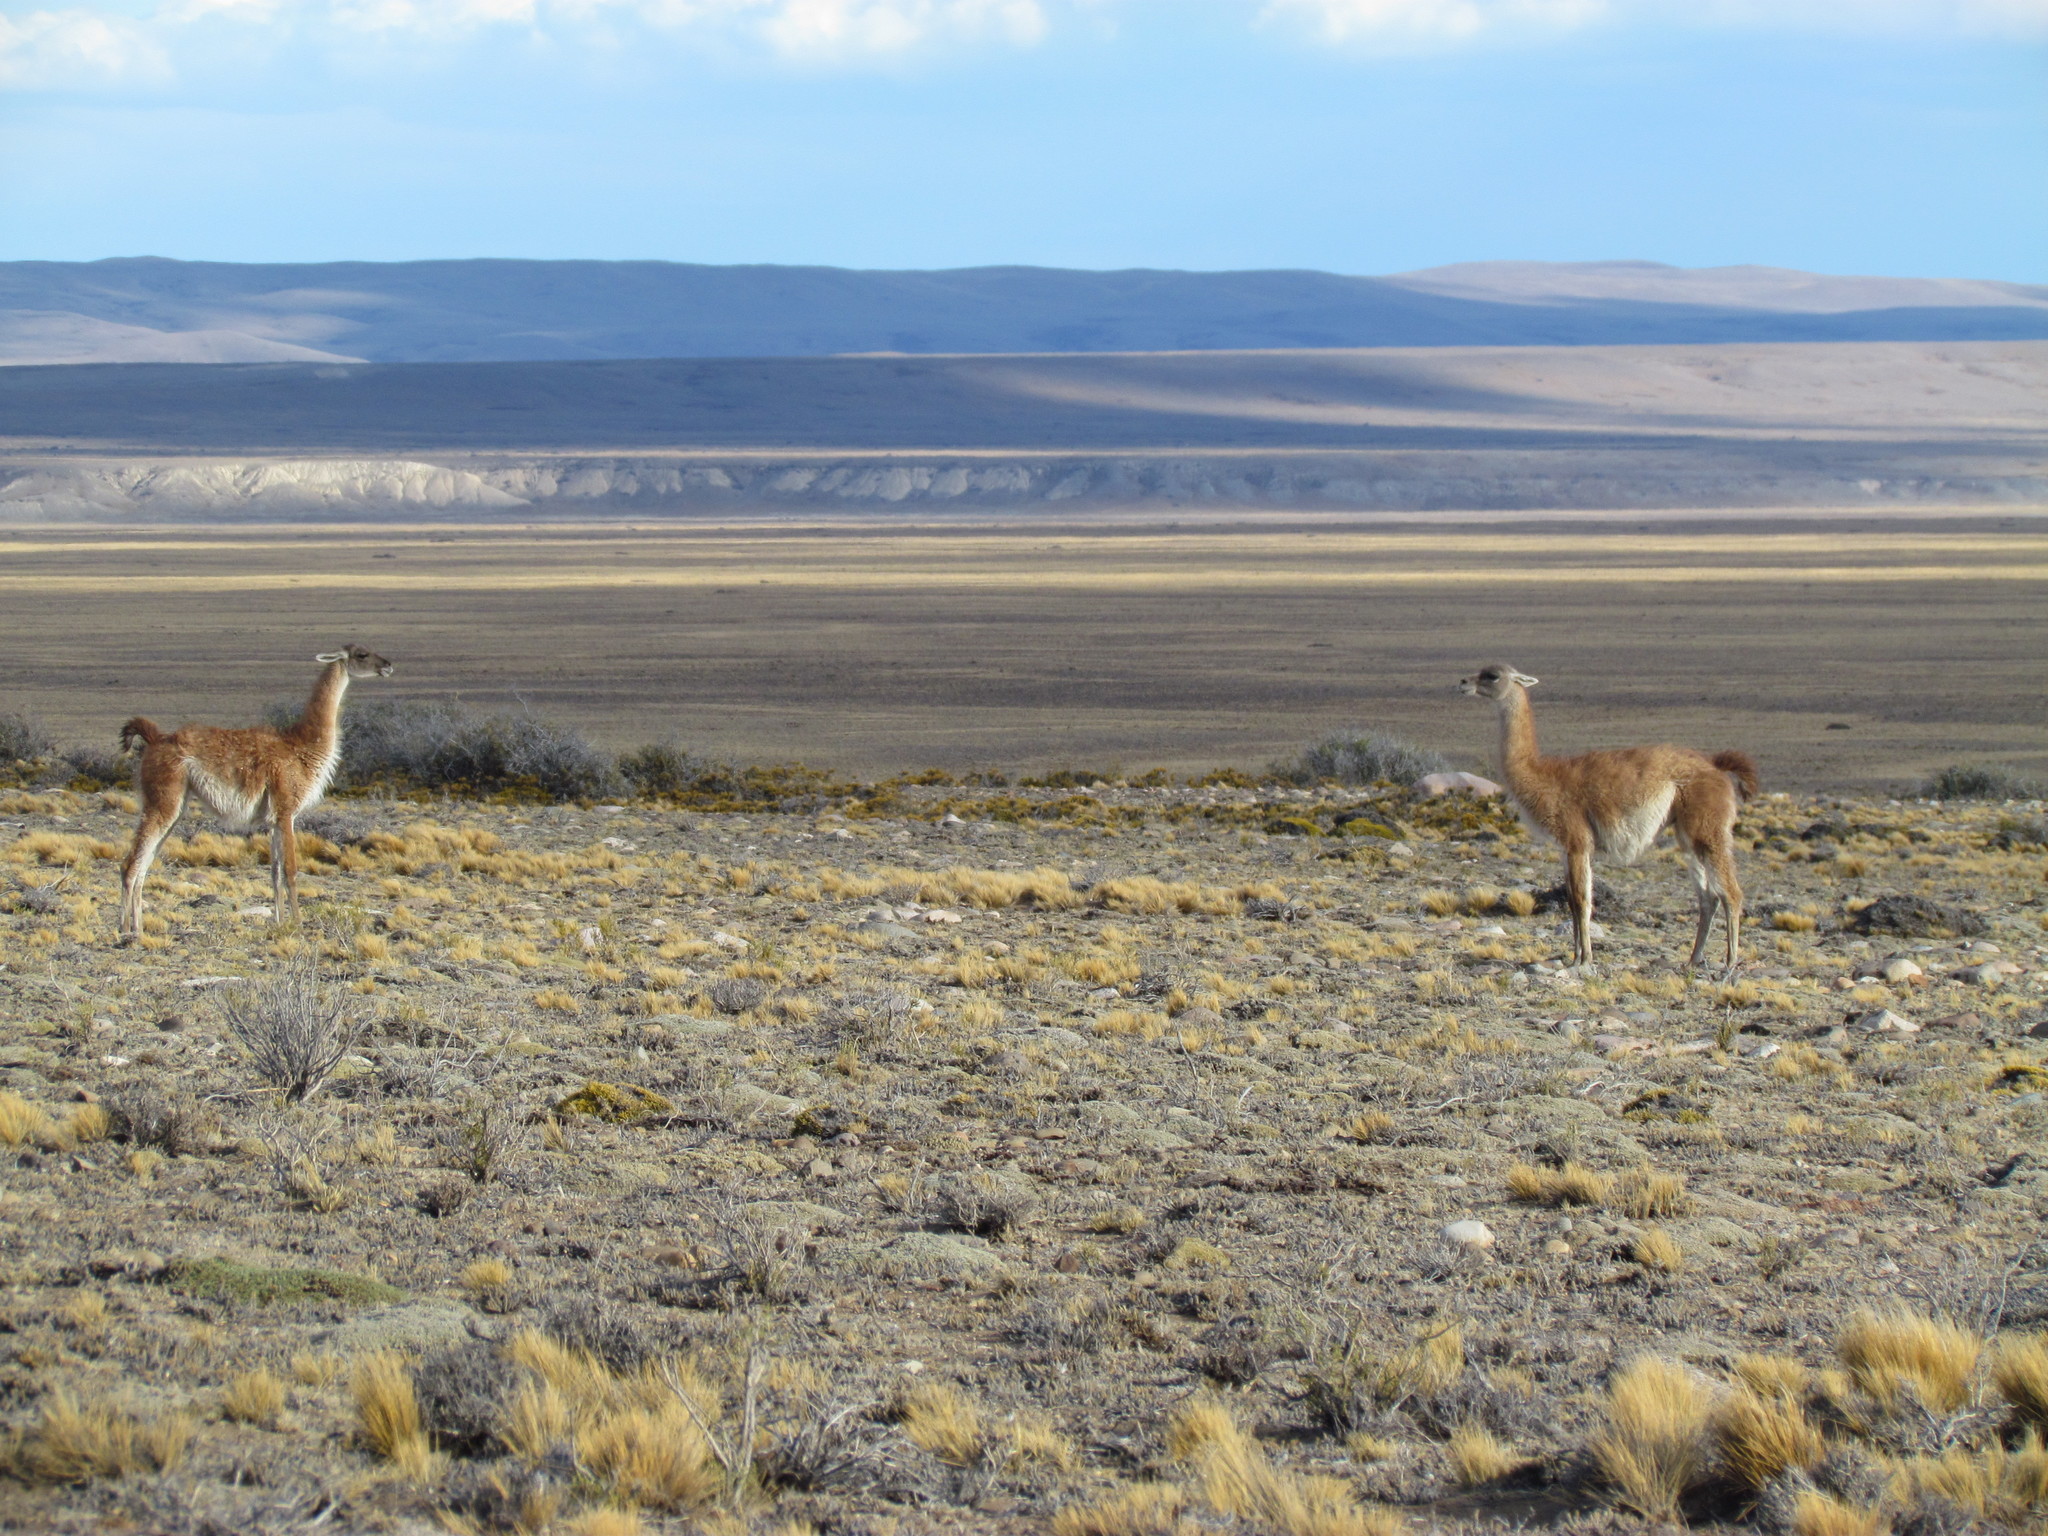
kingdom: Animalia
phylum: Chordata
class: Mammalia
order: Artiodactyla
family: Camelidae
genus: Lama
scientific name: Lama glama
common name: Llama
